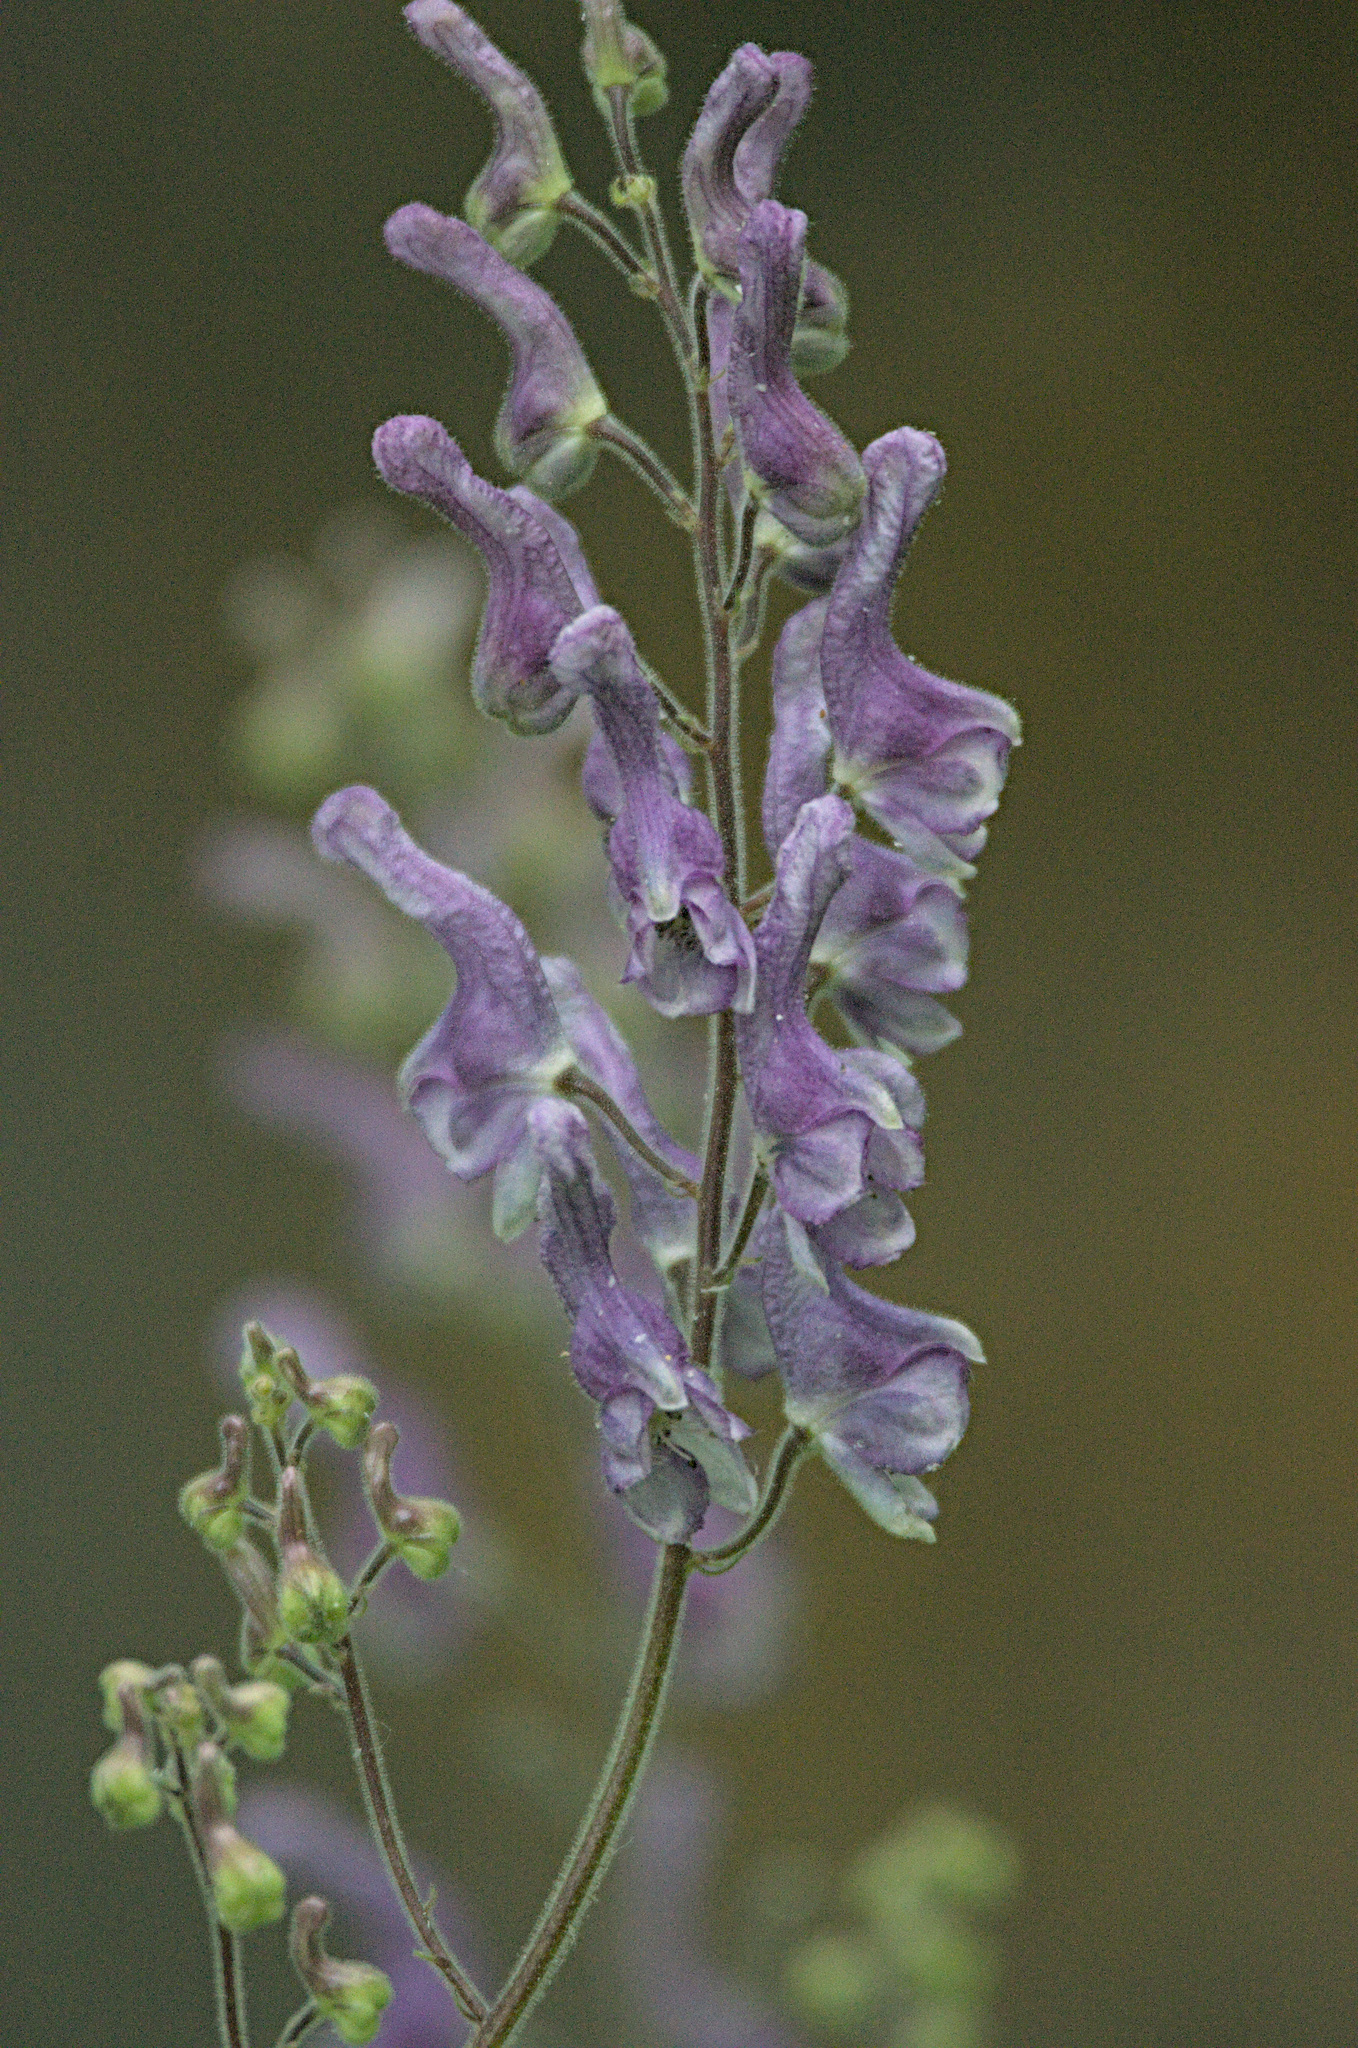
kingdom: Plantae
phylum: Tracheophyta
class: Magnoliopsida
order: Ranunculales
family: Ranunculaceae
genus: Aconitum
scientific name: Aconitum septentrionale
